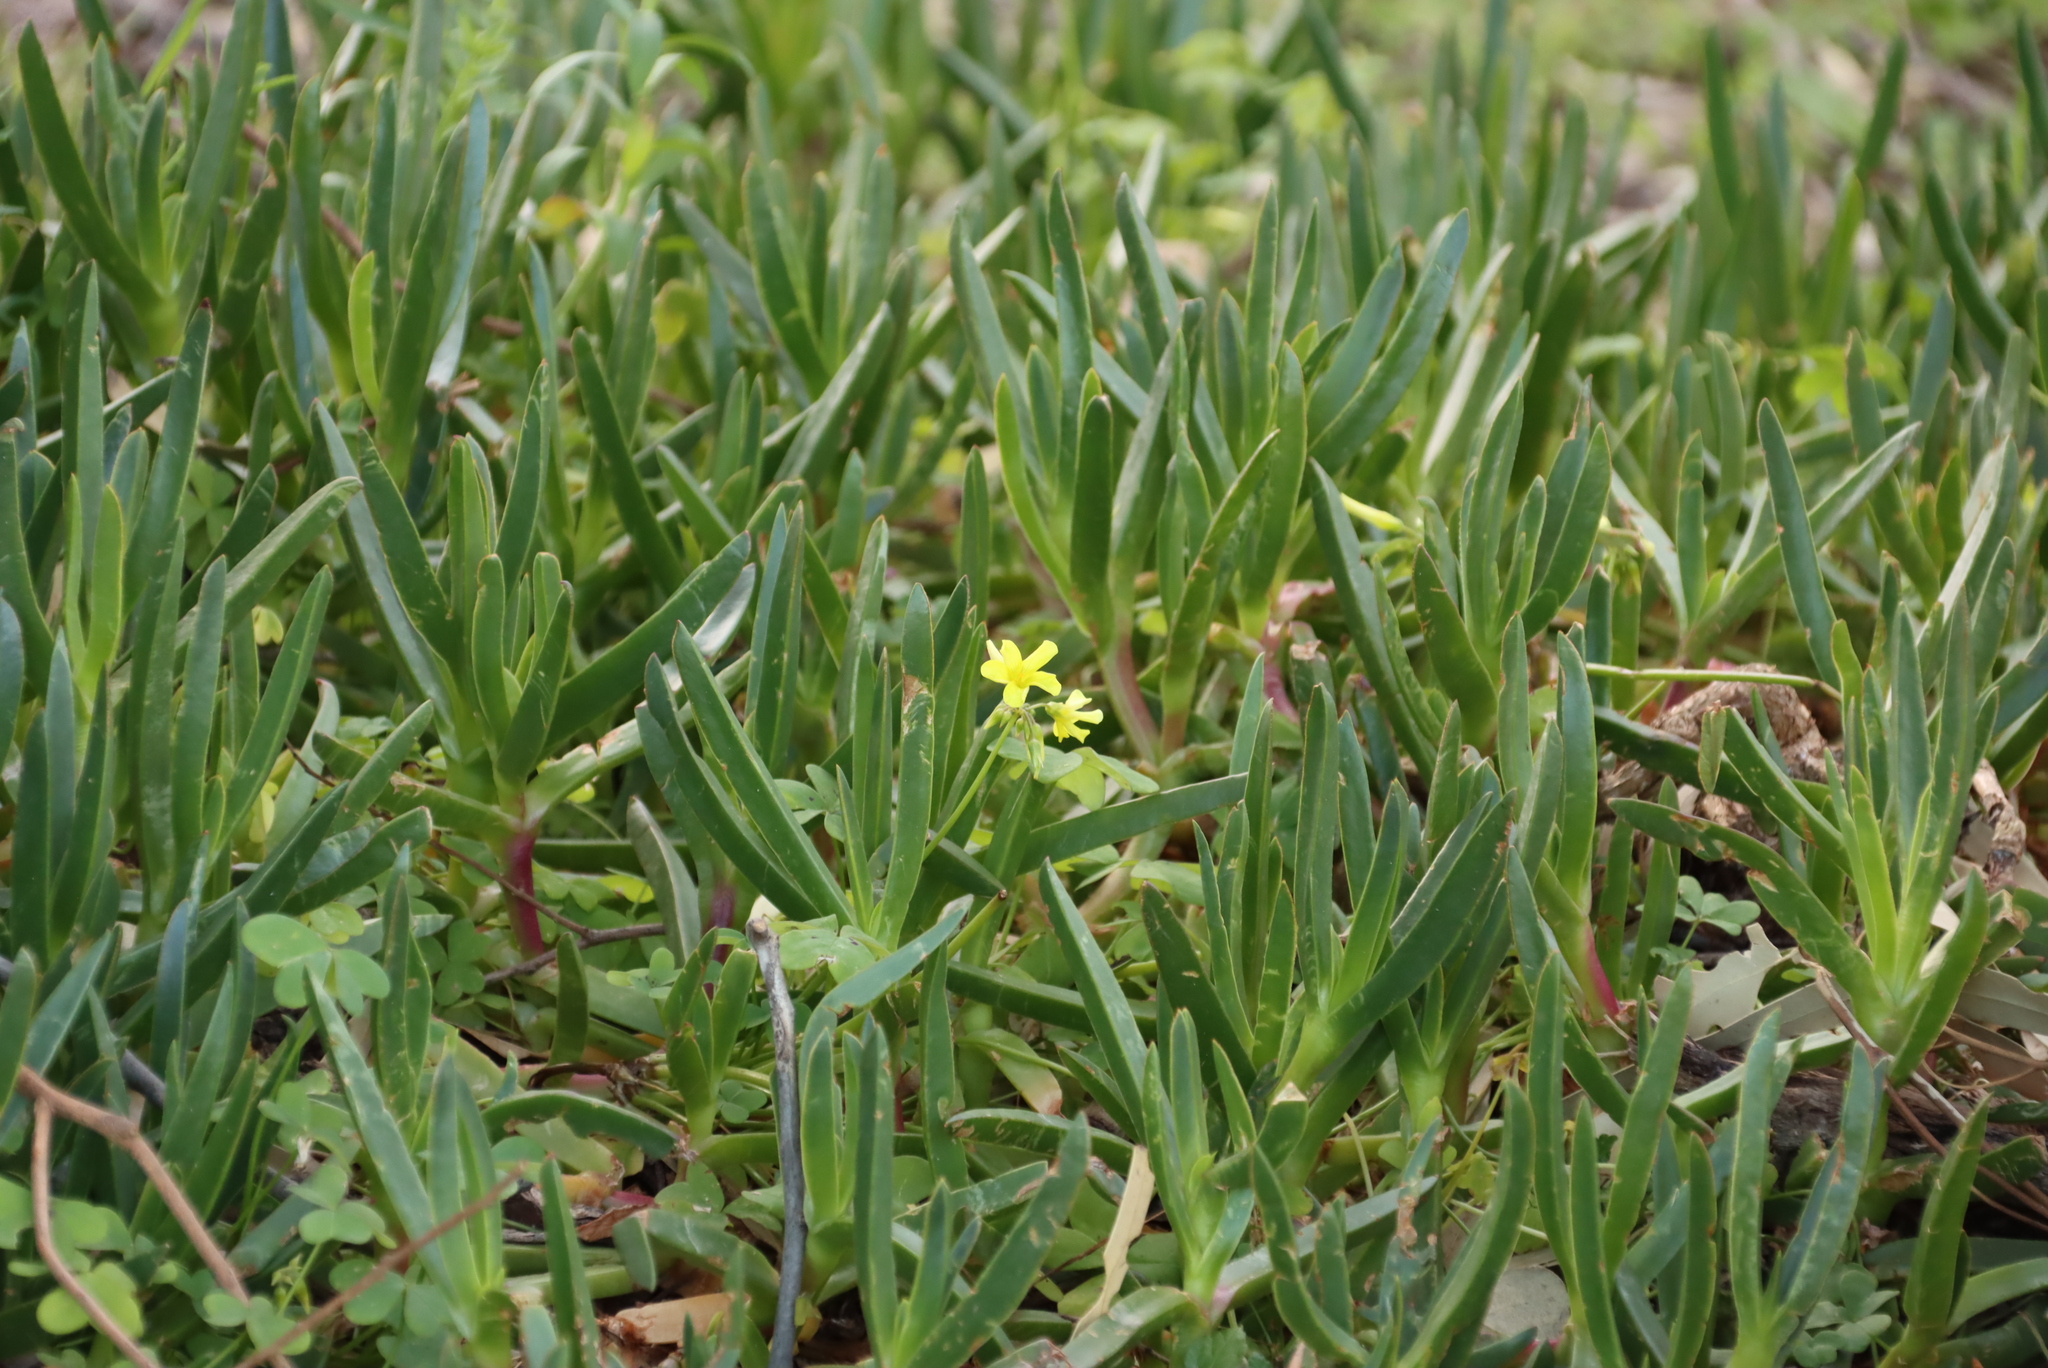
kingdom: Plantae
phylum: Tracheophyta
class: Magnoliopsida
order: Oxalidales
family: Oxalidaceae
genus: Oxalis
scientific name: Oxalis pes-caprae
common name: Bermuda-buttercup
